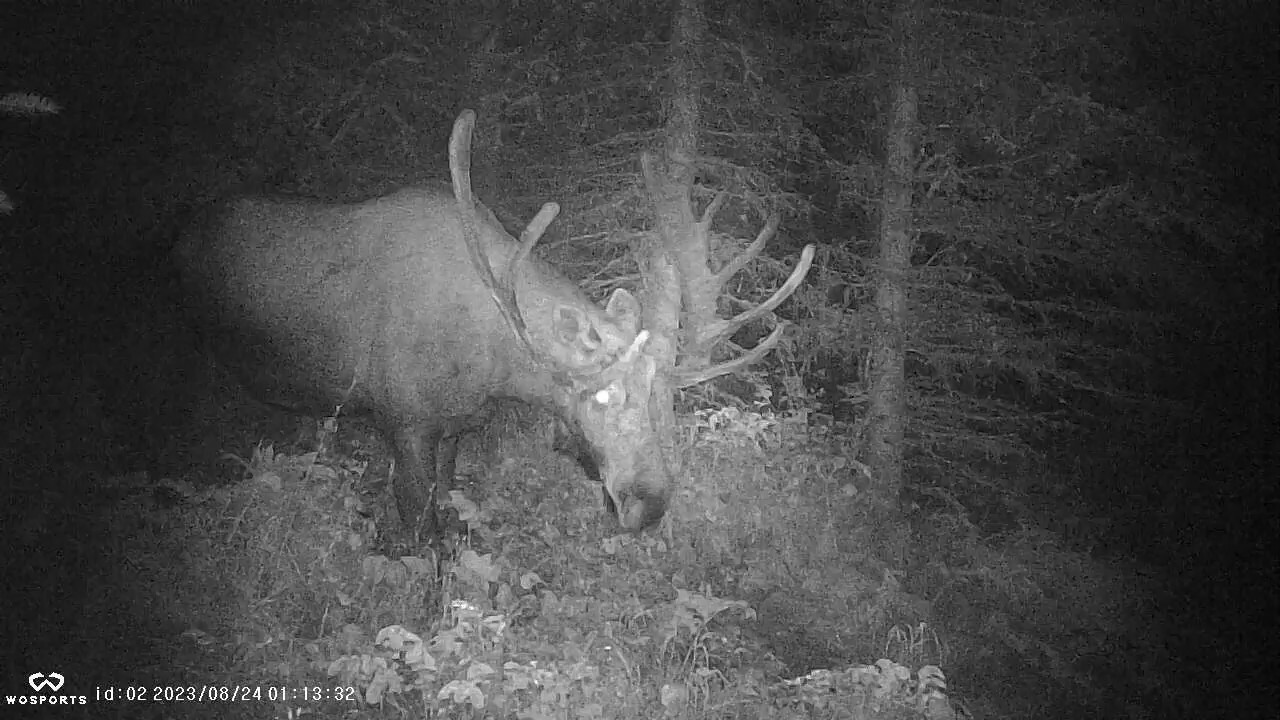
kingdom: Animalia
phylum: Chordata
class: Mammalia
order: Artiodactyla
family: Cervidae
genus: Alces
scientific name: Alces alces
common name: Moose
